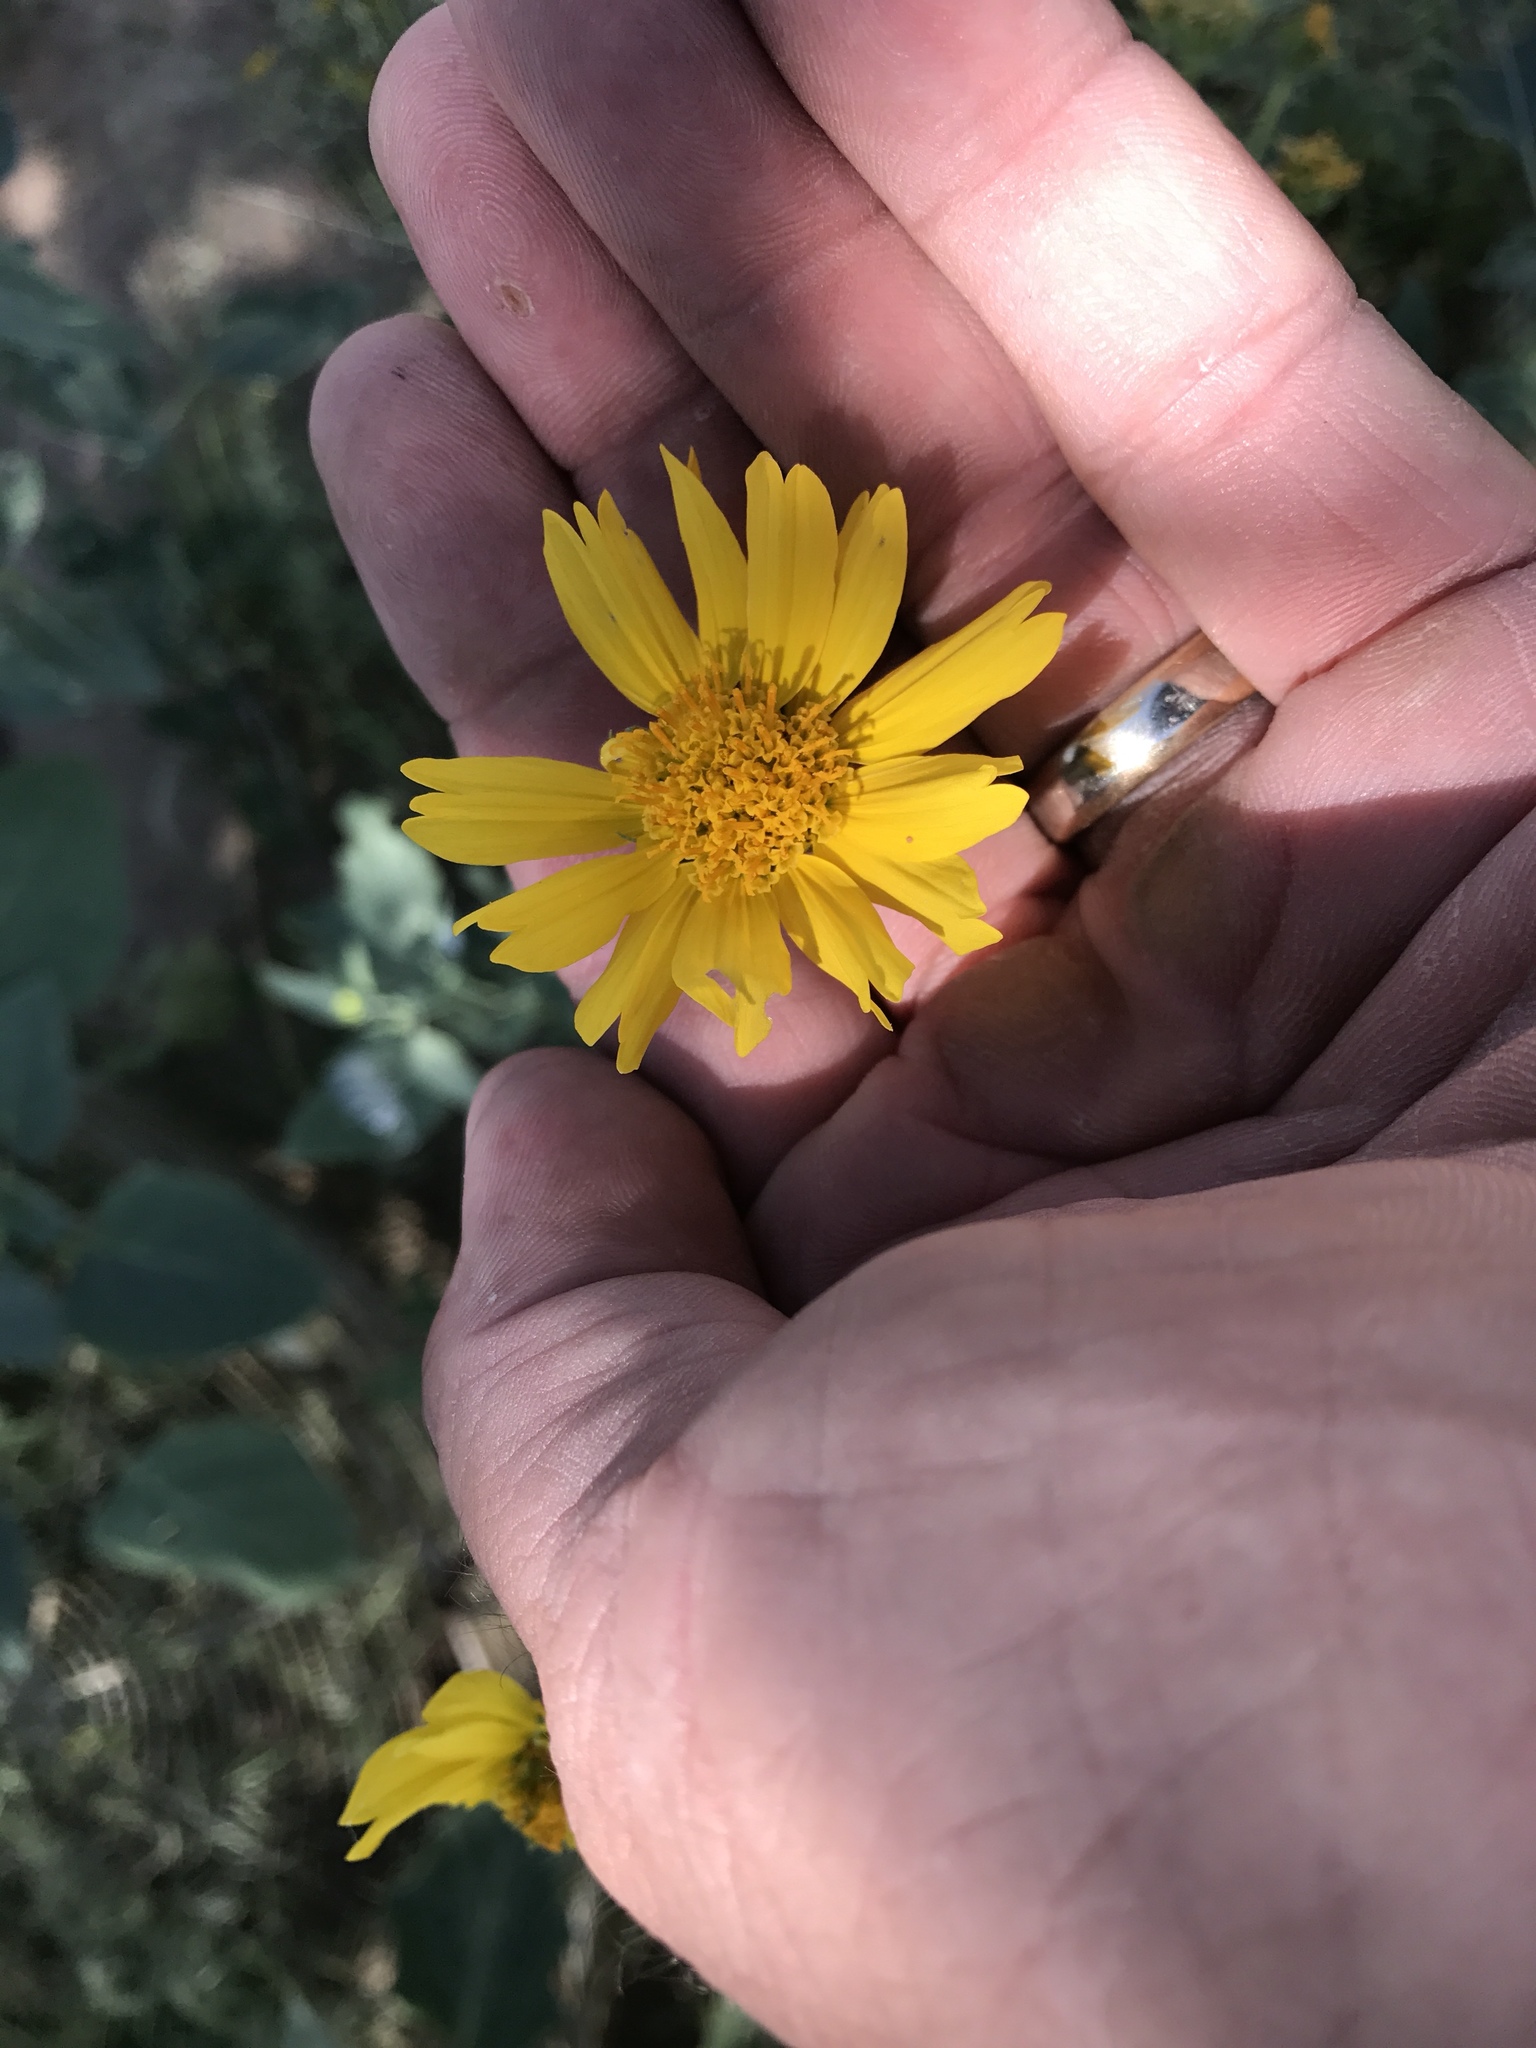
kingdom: Plantae
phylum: Tracheophyta
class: Magnoliopsida
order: Asterales
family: Asteraceae
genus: Verbesina
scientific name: Verbesina encelioides
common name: Golden crownbeard
